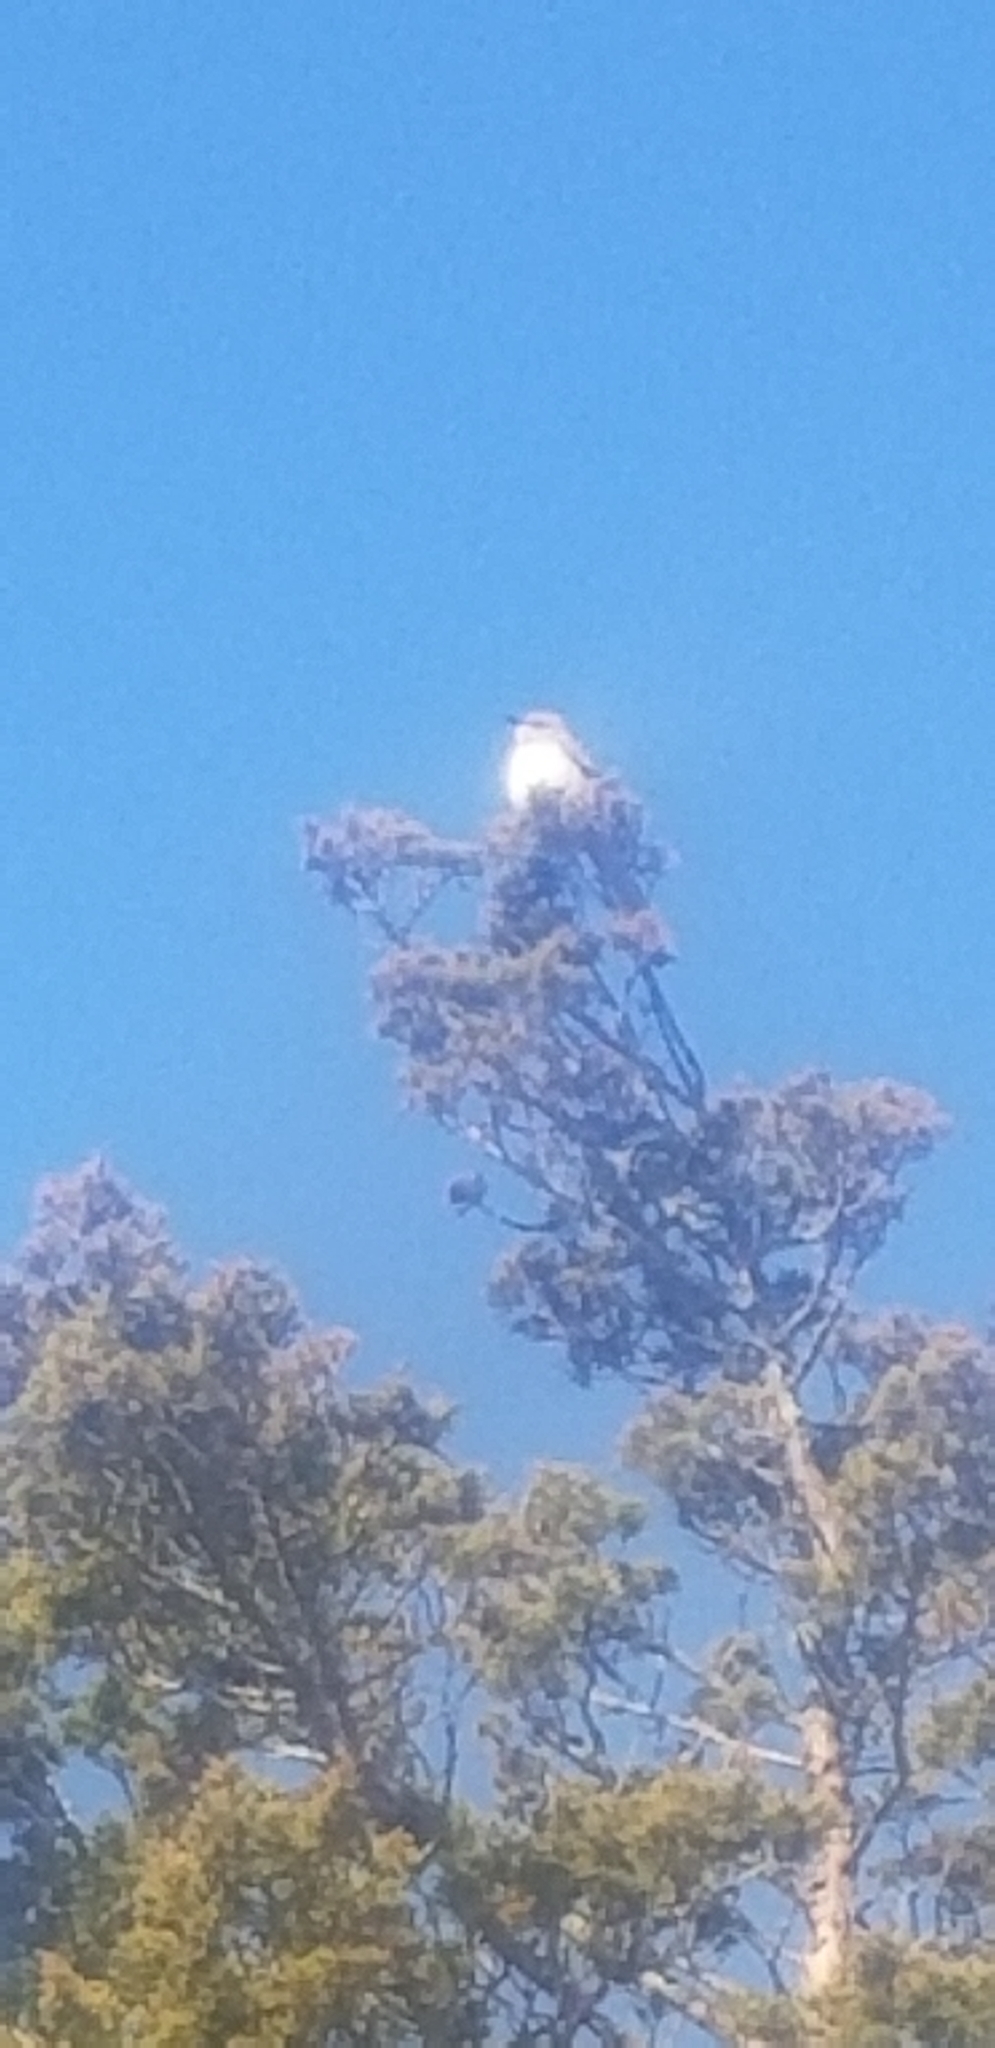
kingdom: Animalia
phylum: Chordata
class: Aves
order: Passeriformes
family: Mimidae
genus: Mimus
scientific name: Mimus polyglottos
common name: Northern mockingbird
